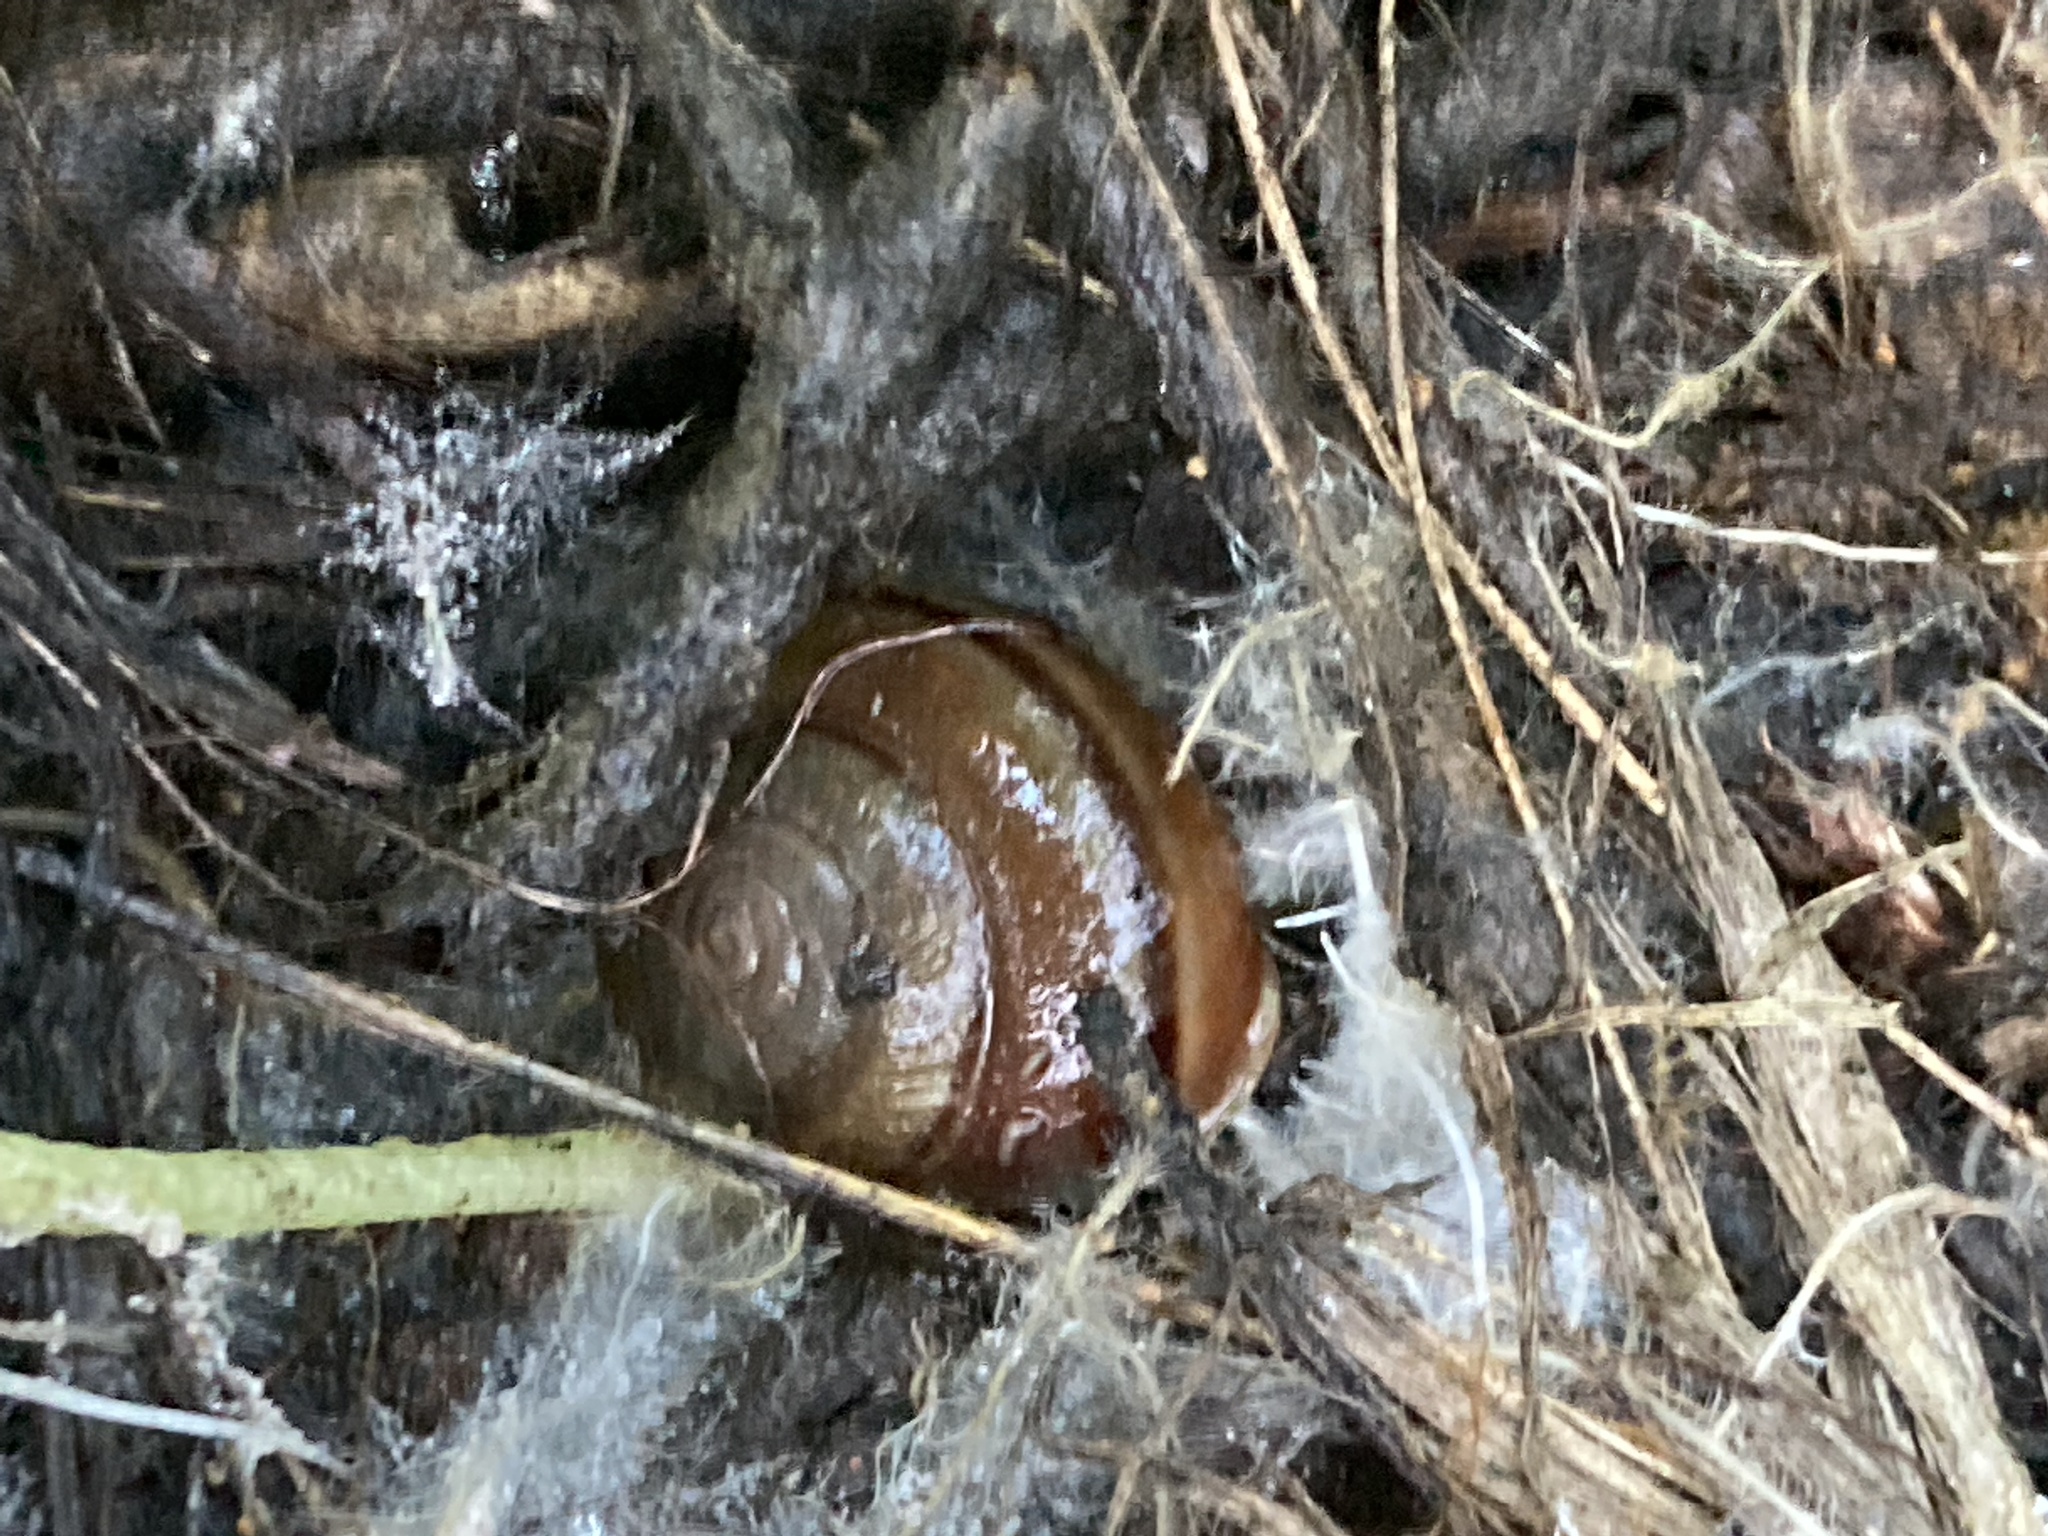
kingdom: Animalia
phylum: Mollusca
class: Gastropoda
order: Stylommatophora
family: Xanthonychidae
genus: Helminthoglypta
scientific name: Helminthoglypta tudiculata
